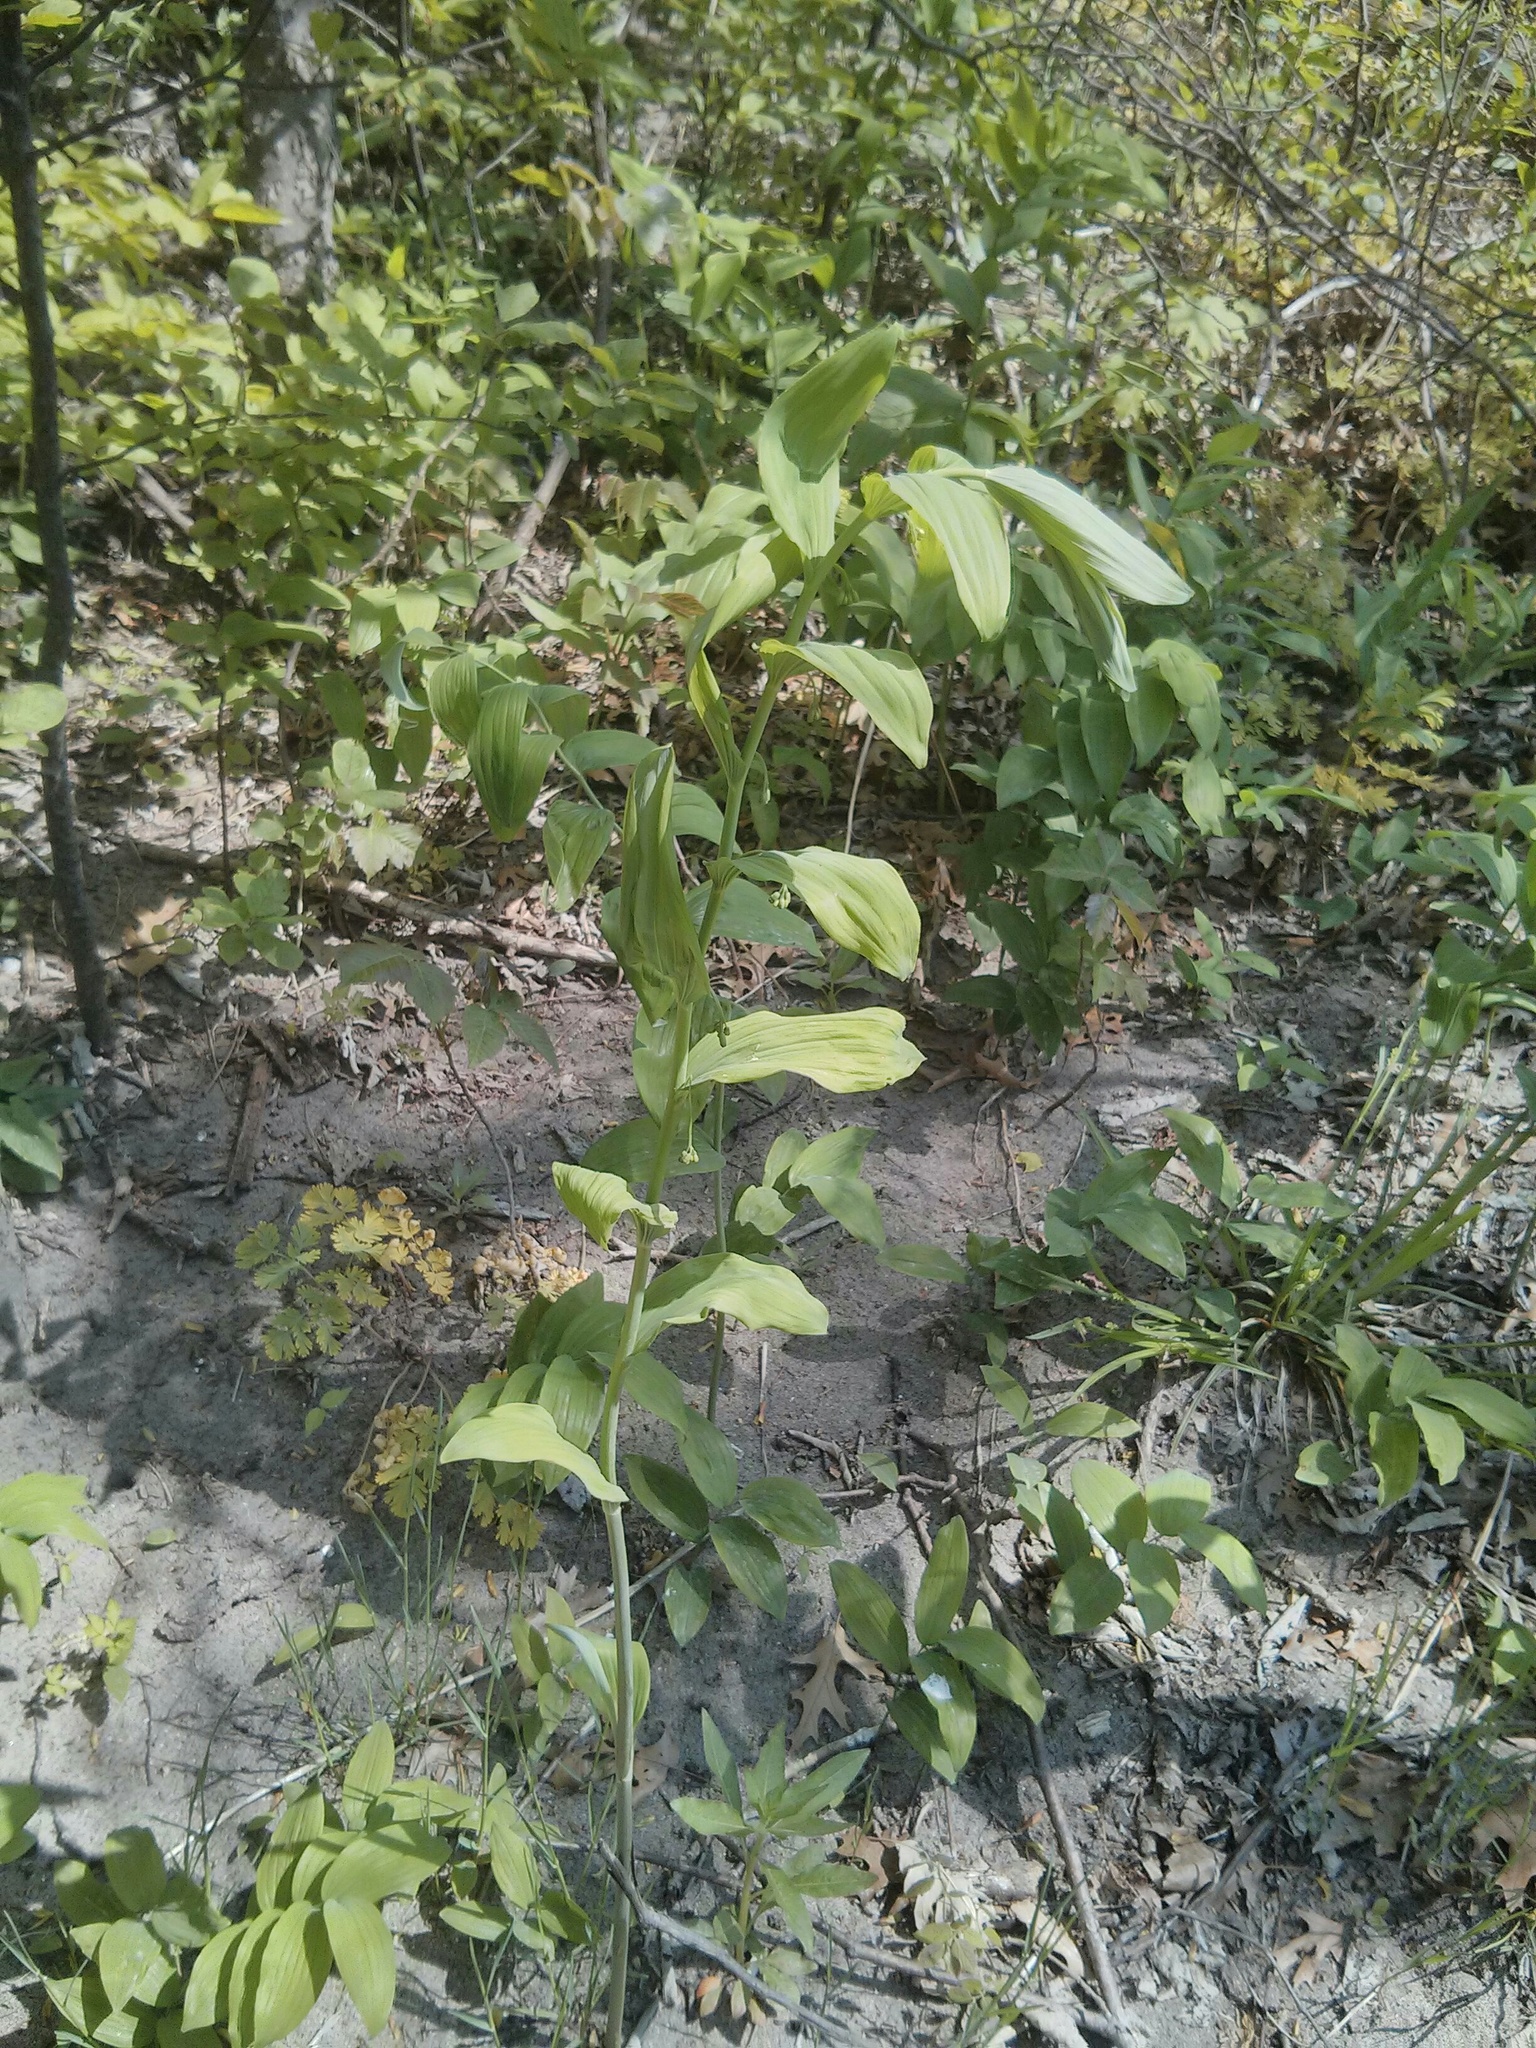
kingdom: Plantae
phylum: Tracheophyta
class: Liliopsida
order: Asparagales
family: Asparagaceae
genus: Polygonatum
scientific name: Polygonatum biflorum
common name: American solomon's-seal
